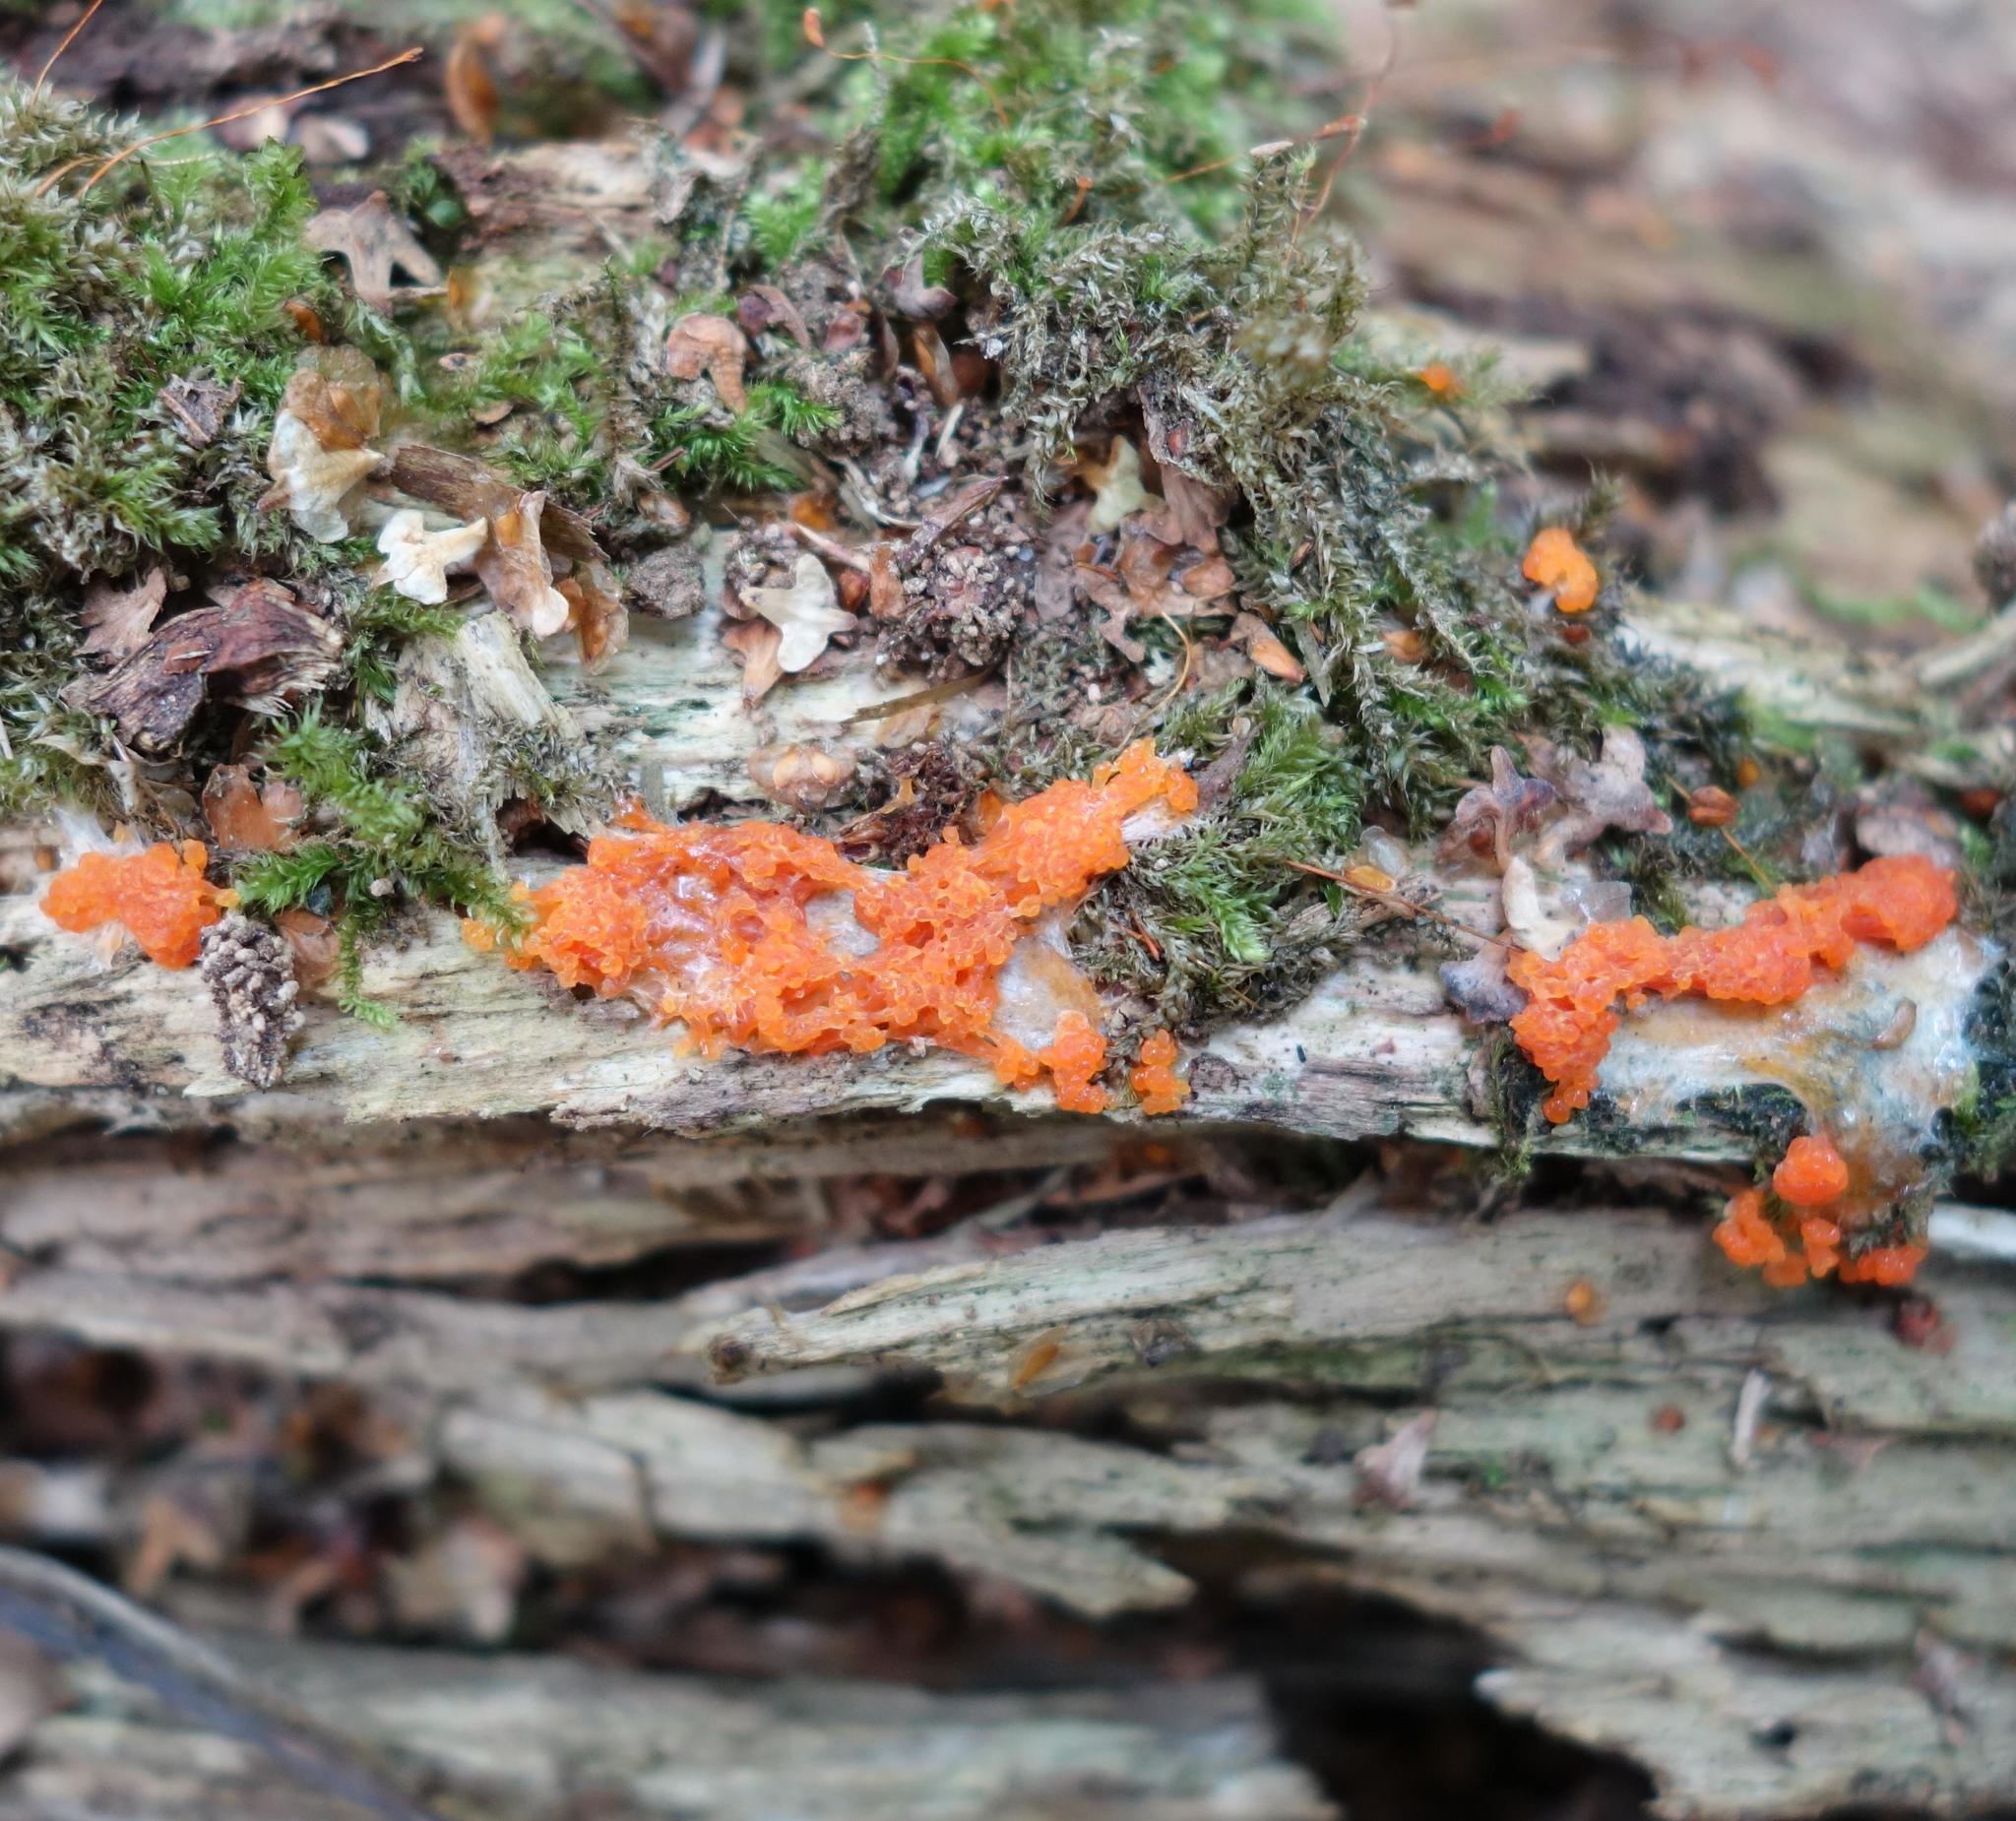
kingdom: Protozoa
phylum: Mycetozoa
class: Myxomycetes
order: Cribrariales
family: Tubiferaceae
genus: Tubifera
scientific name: Tubifera ferruginosa
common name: Red raspberry slime mold
